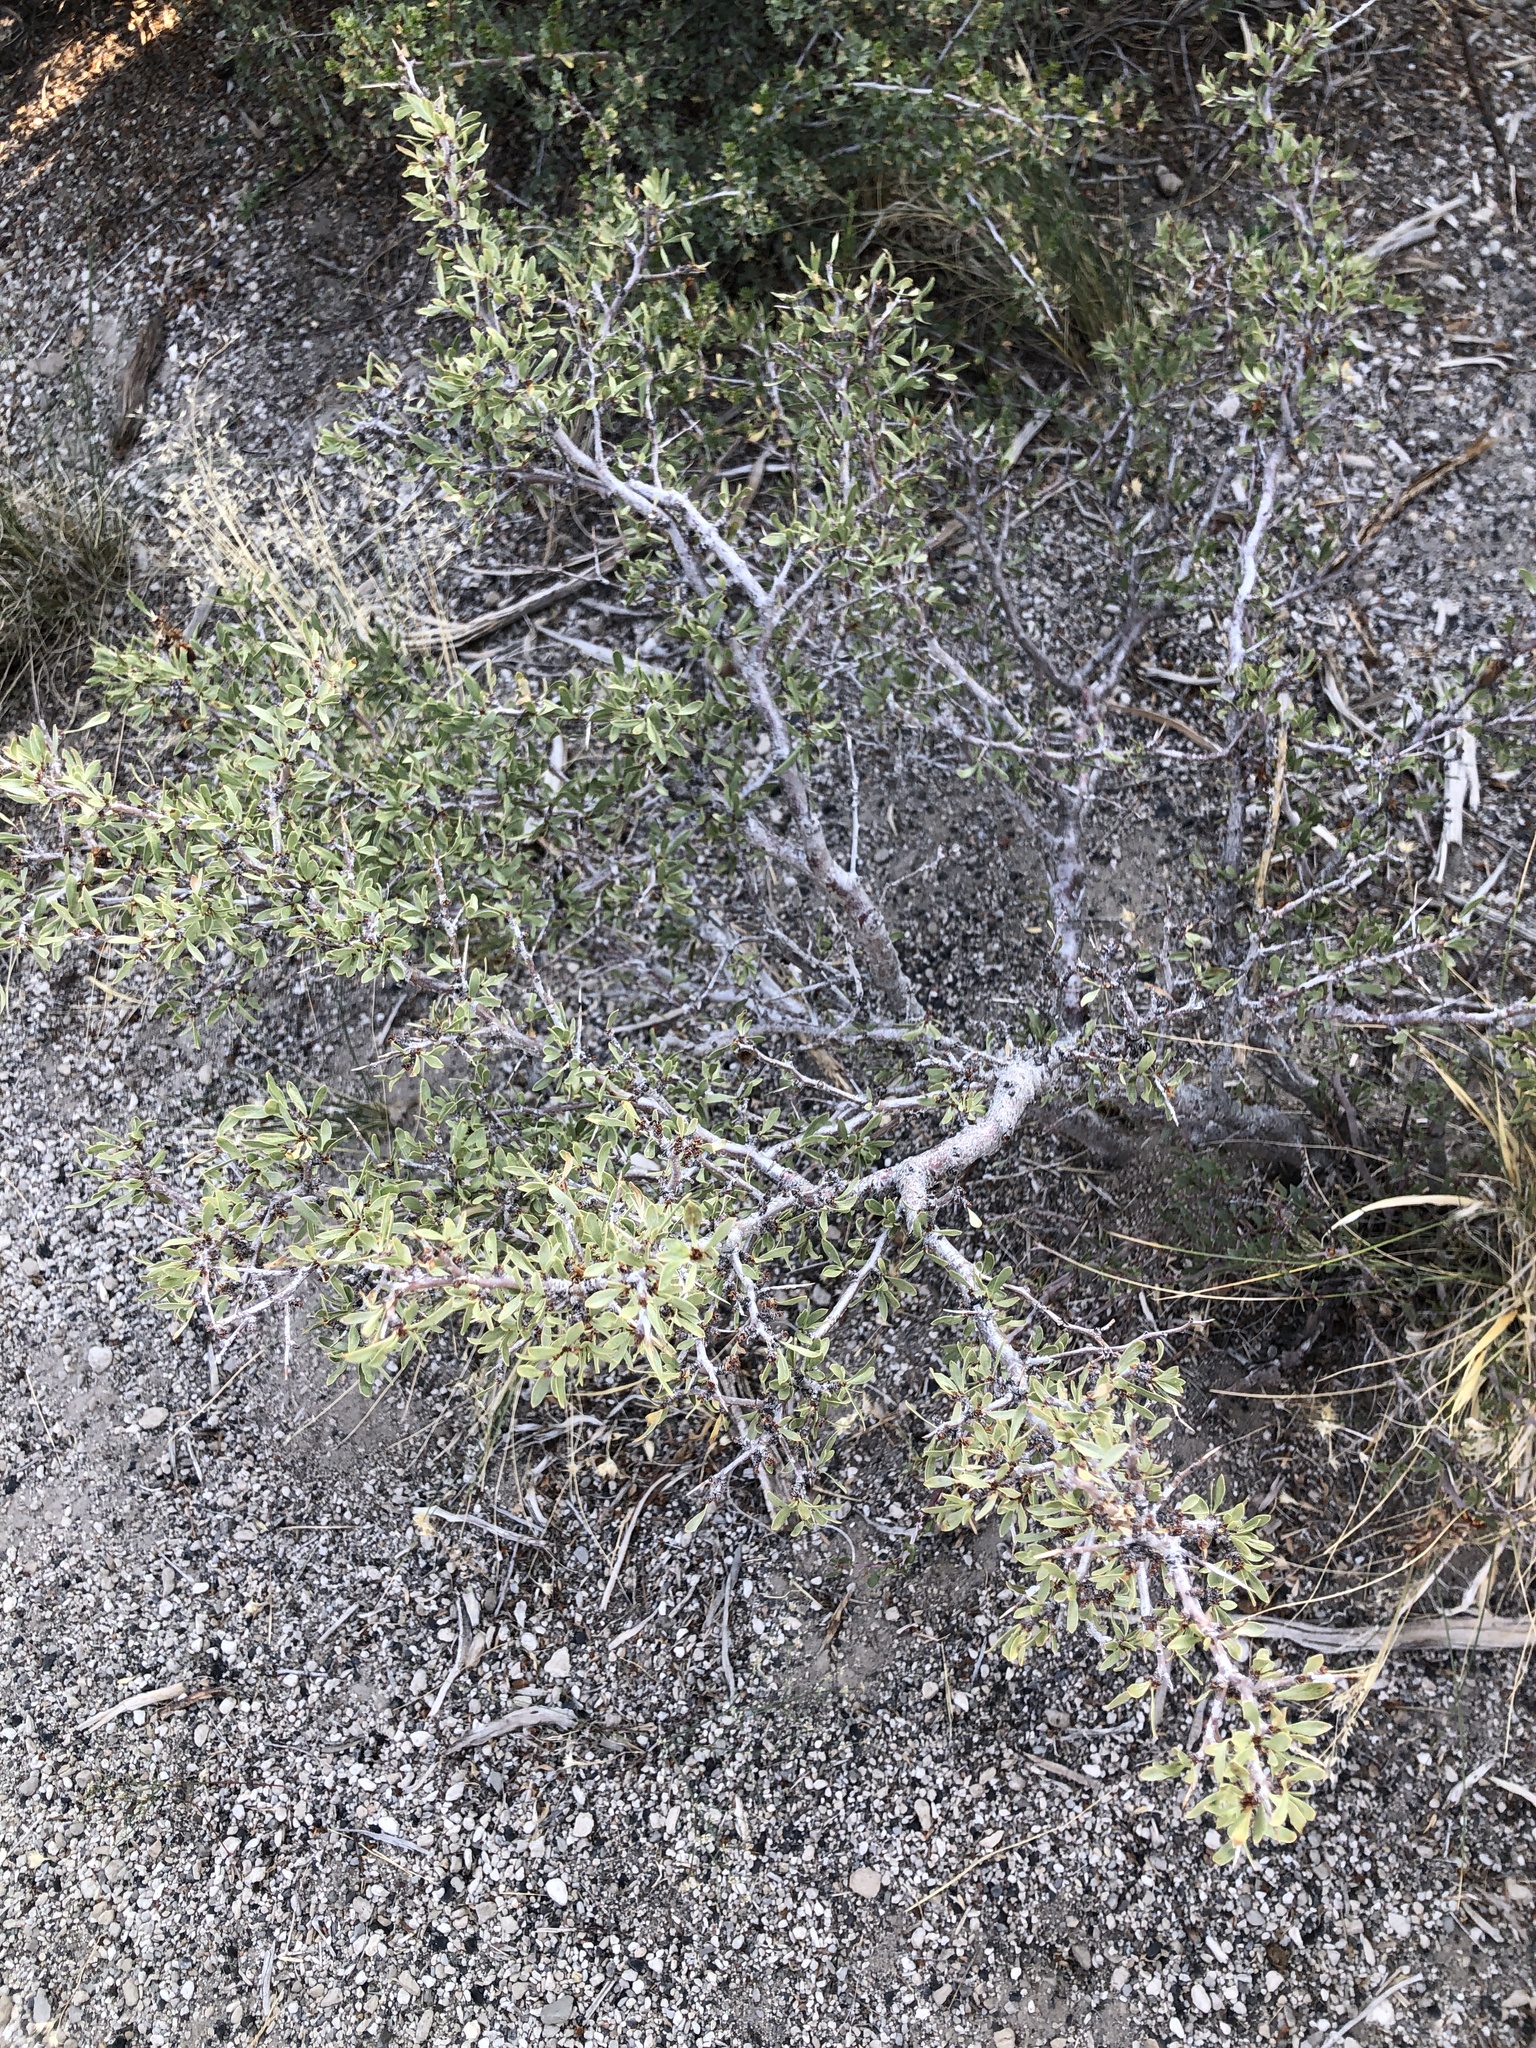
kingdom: Plantae
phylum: Tracheophyta
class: Magnoliopsida
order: Rosales
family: Rosaceae
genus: Prunus
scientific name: Prunus andersonii
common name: Desert peach
